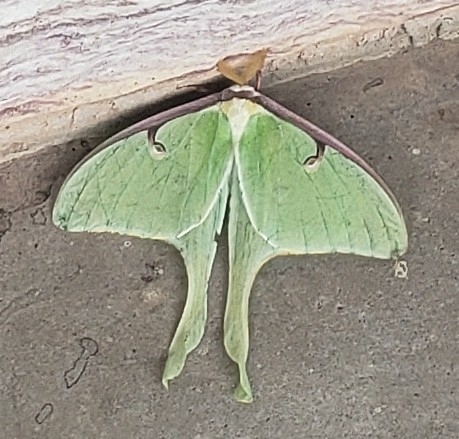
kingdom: Animalia
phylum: Arthropoda
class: Insecta
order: Lepidoptera
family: Saturniidae
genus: Actias
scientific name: Actias luna
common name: Luna moth
